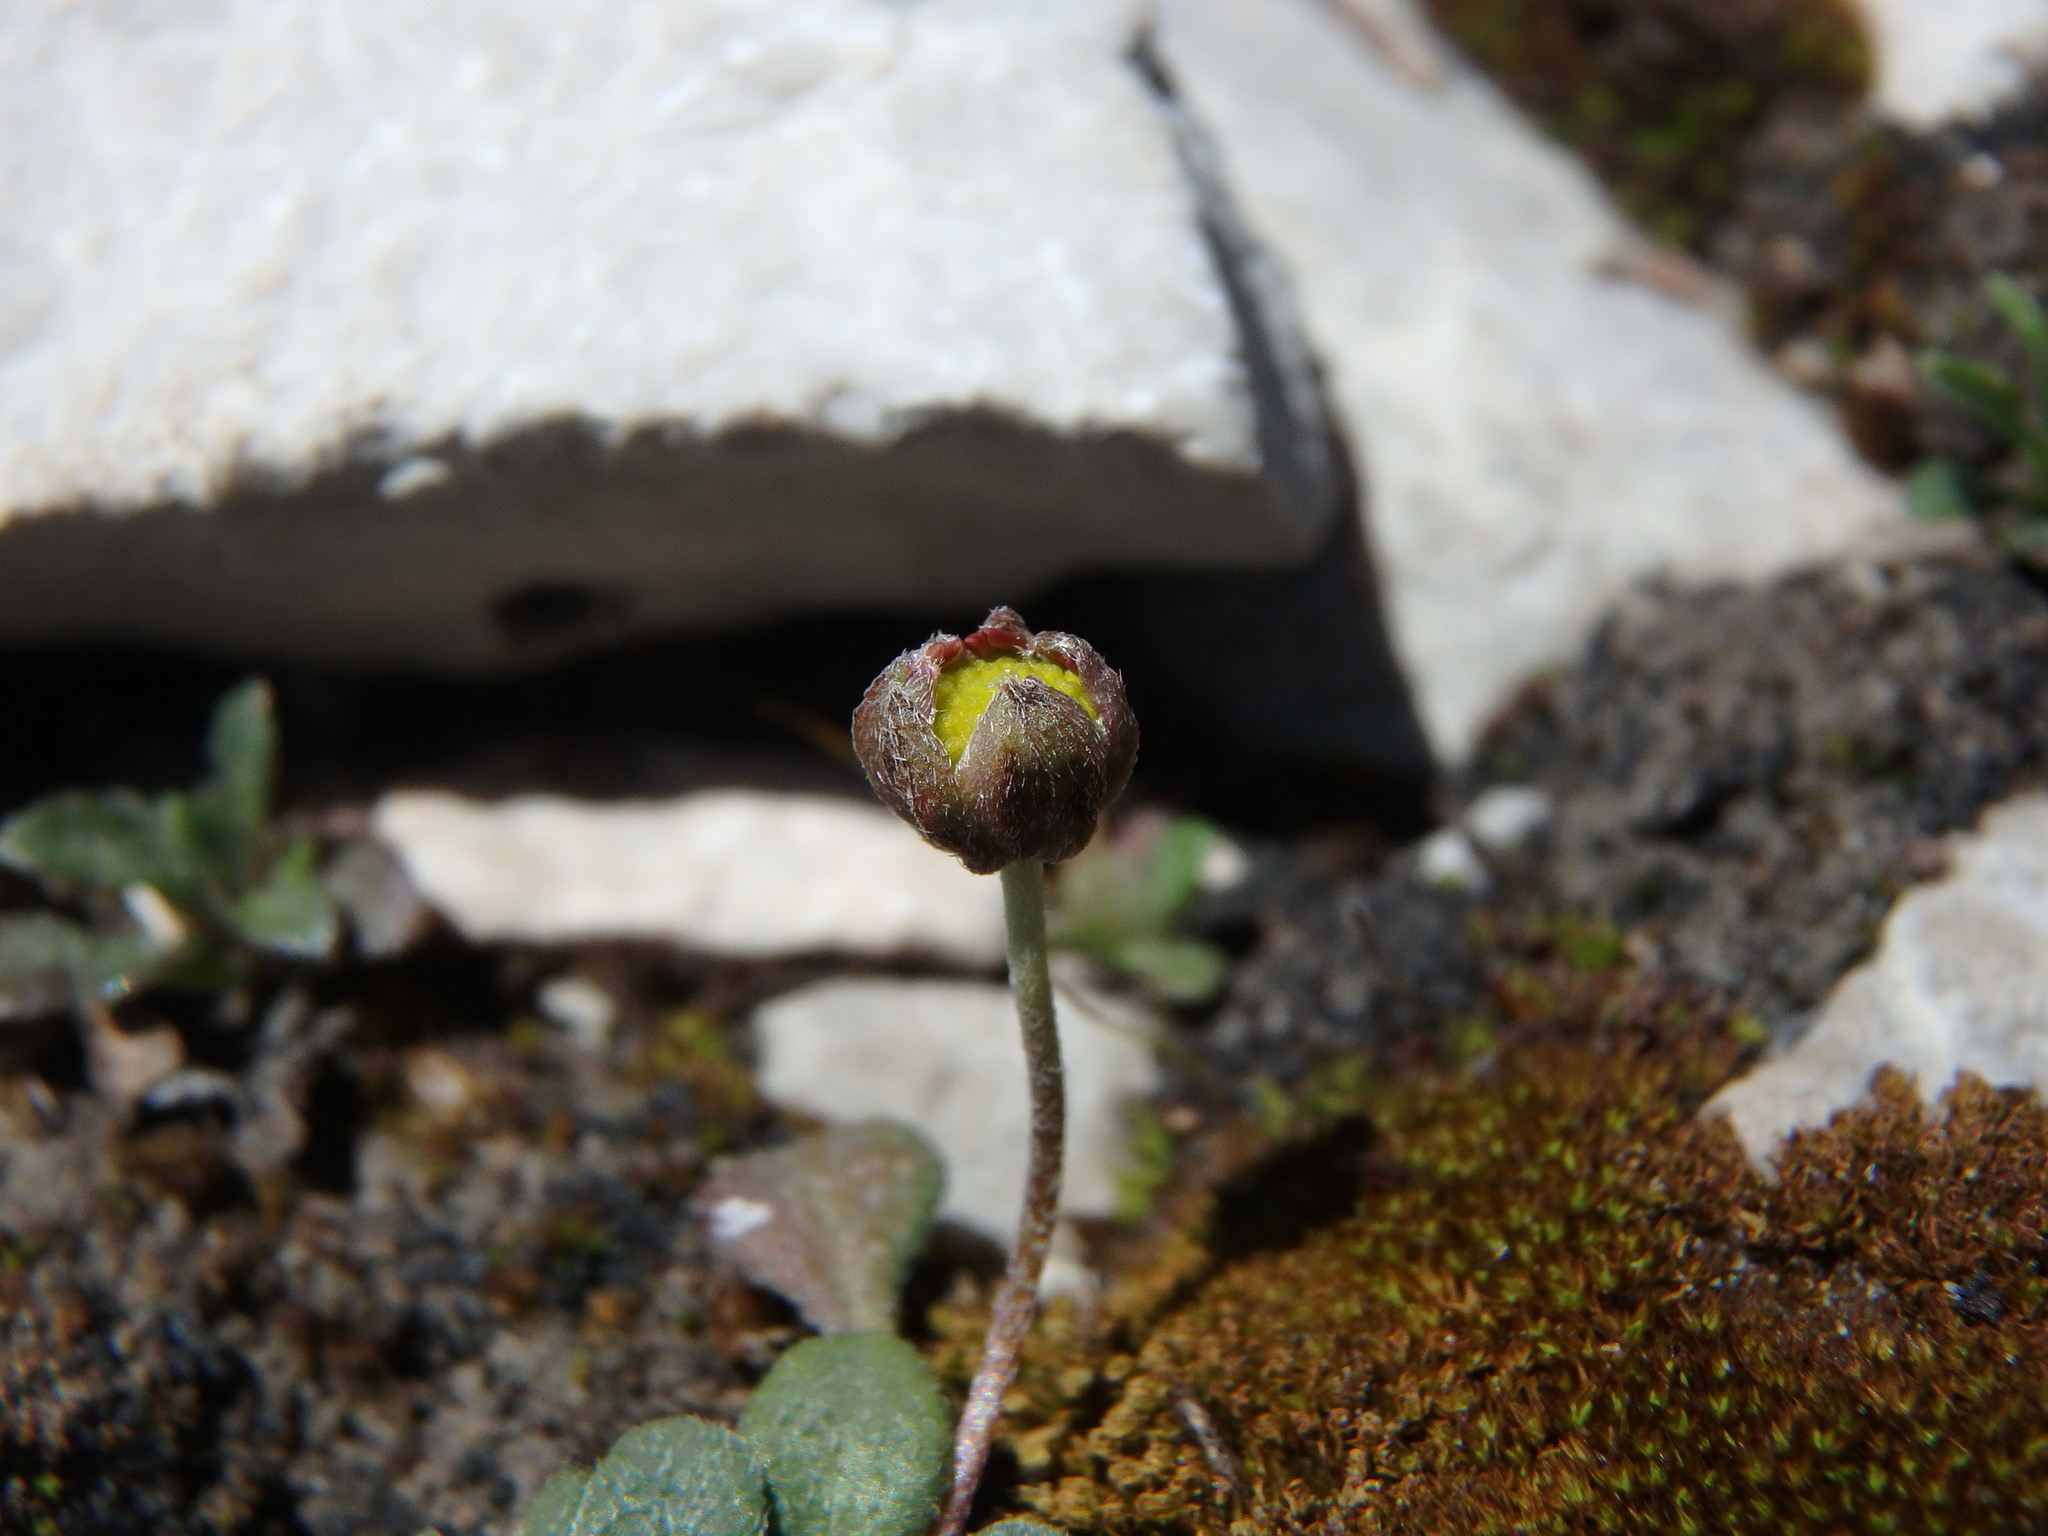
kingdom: Plantae
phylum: Tracheophyta
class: Magnoliopsida
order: Asterales
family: Asteraceae
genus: Bellium
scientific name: Bellium bellidioides
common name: False daisy
